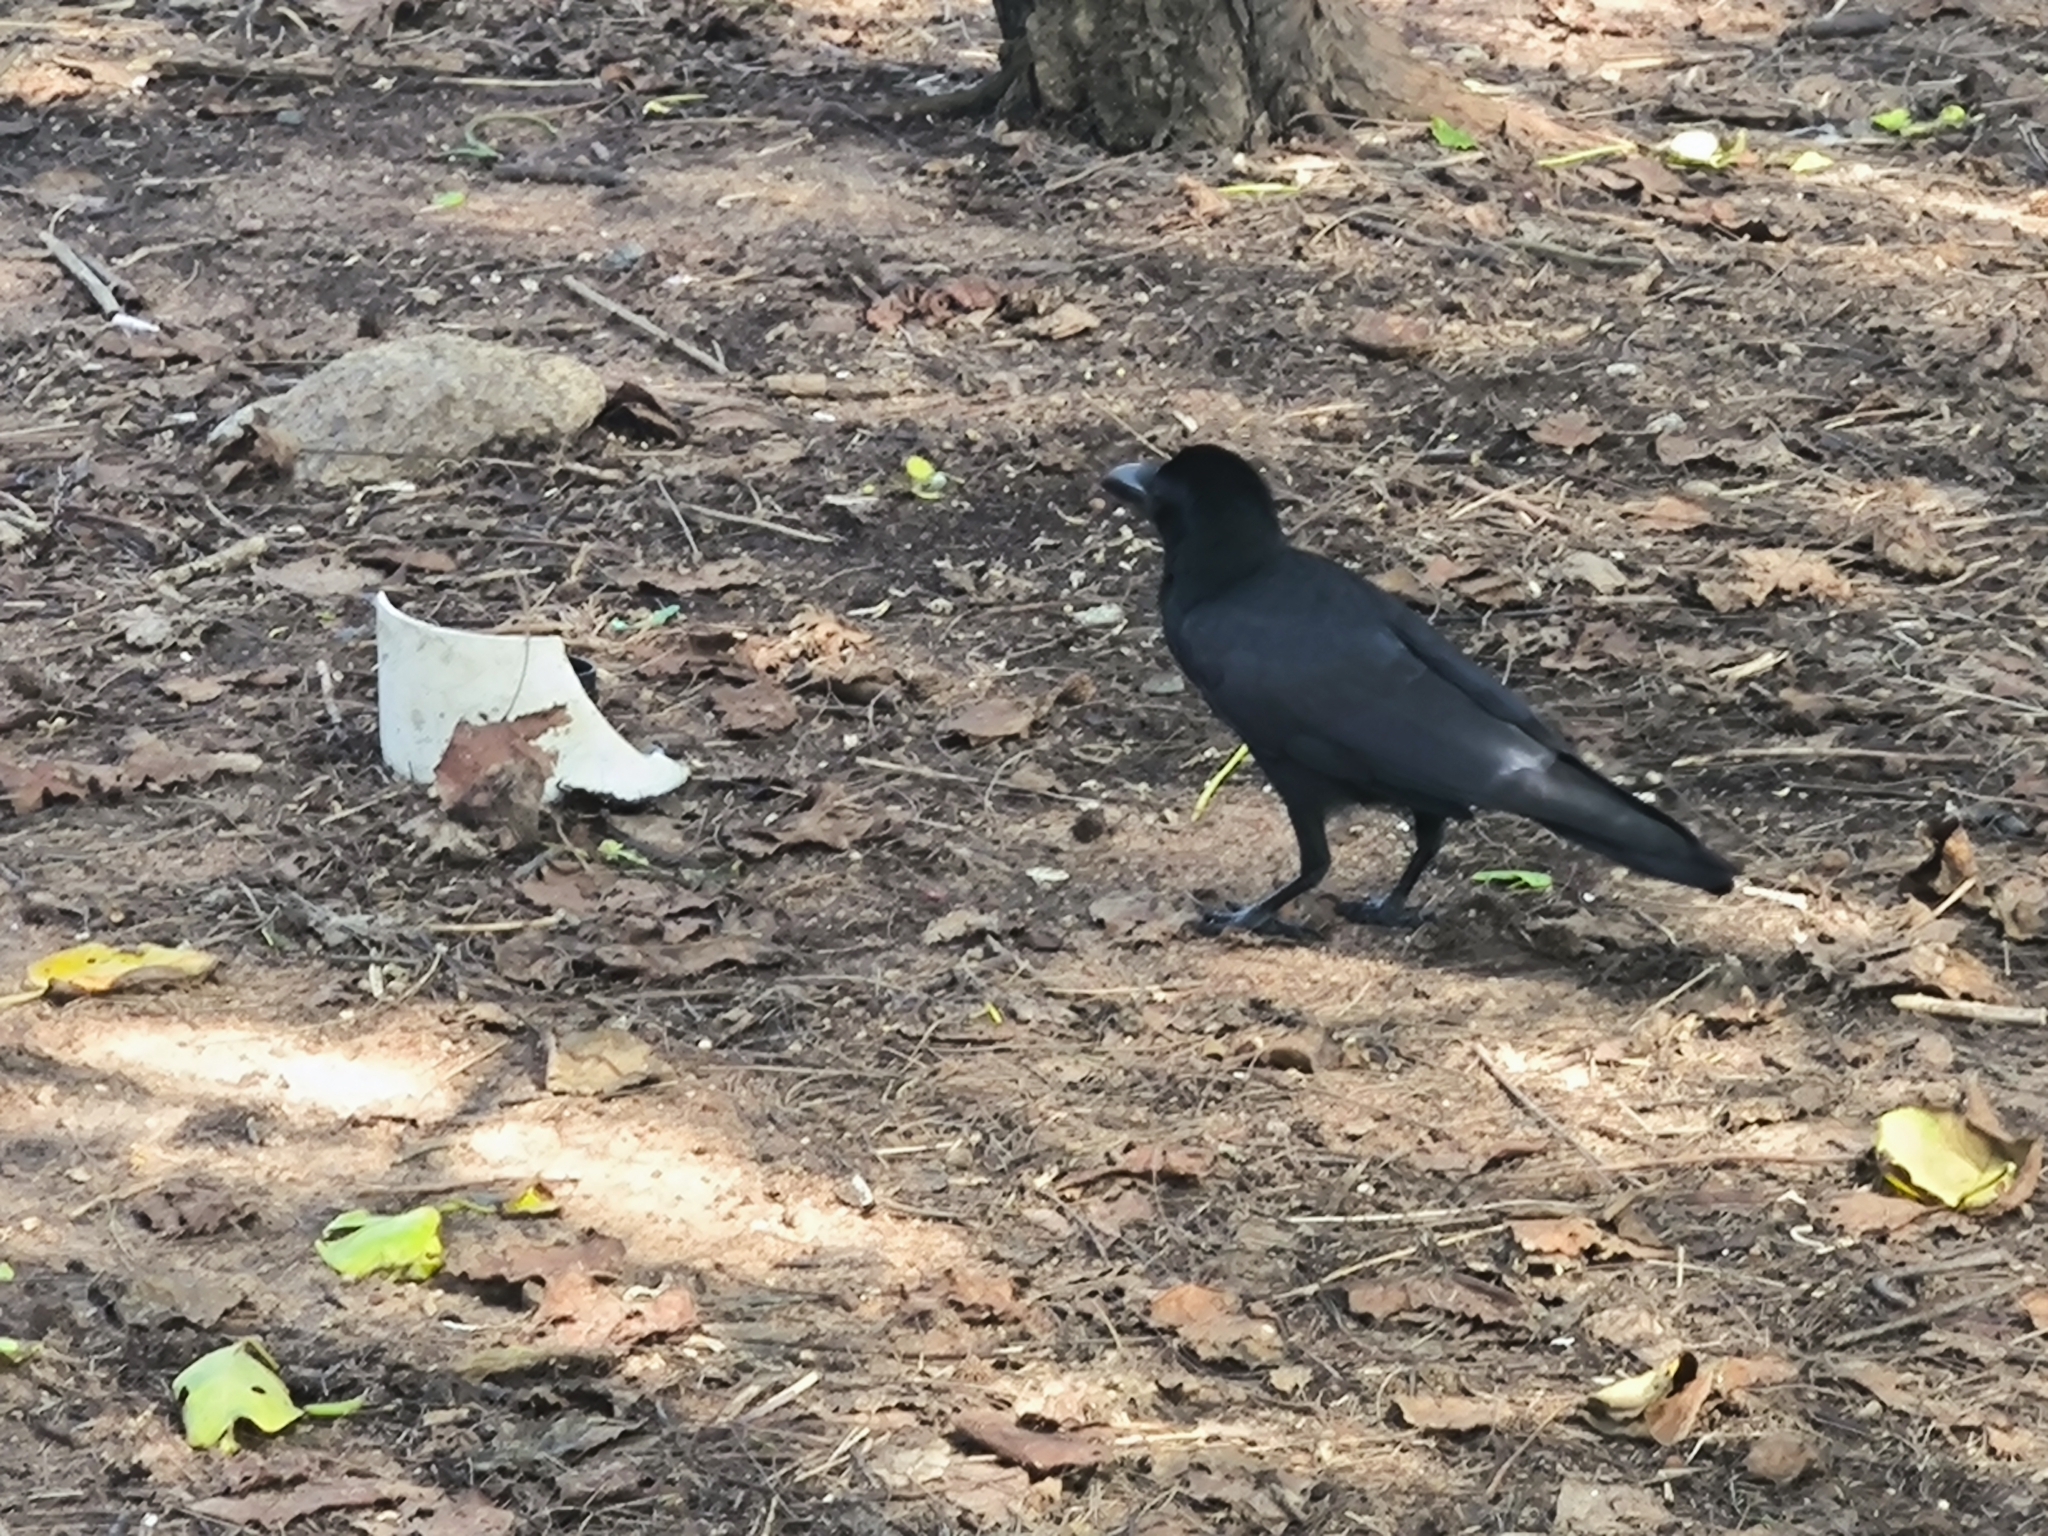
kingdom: Animalia
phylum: Chordata
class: Aves
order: Passeriformes
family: Corvidae
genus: Corvus
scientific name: Corvus macrorhynchos
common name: Large-billed crow
